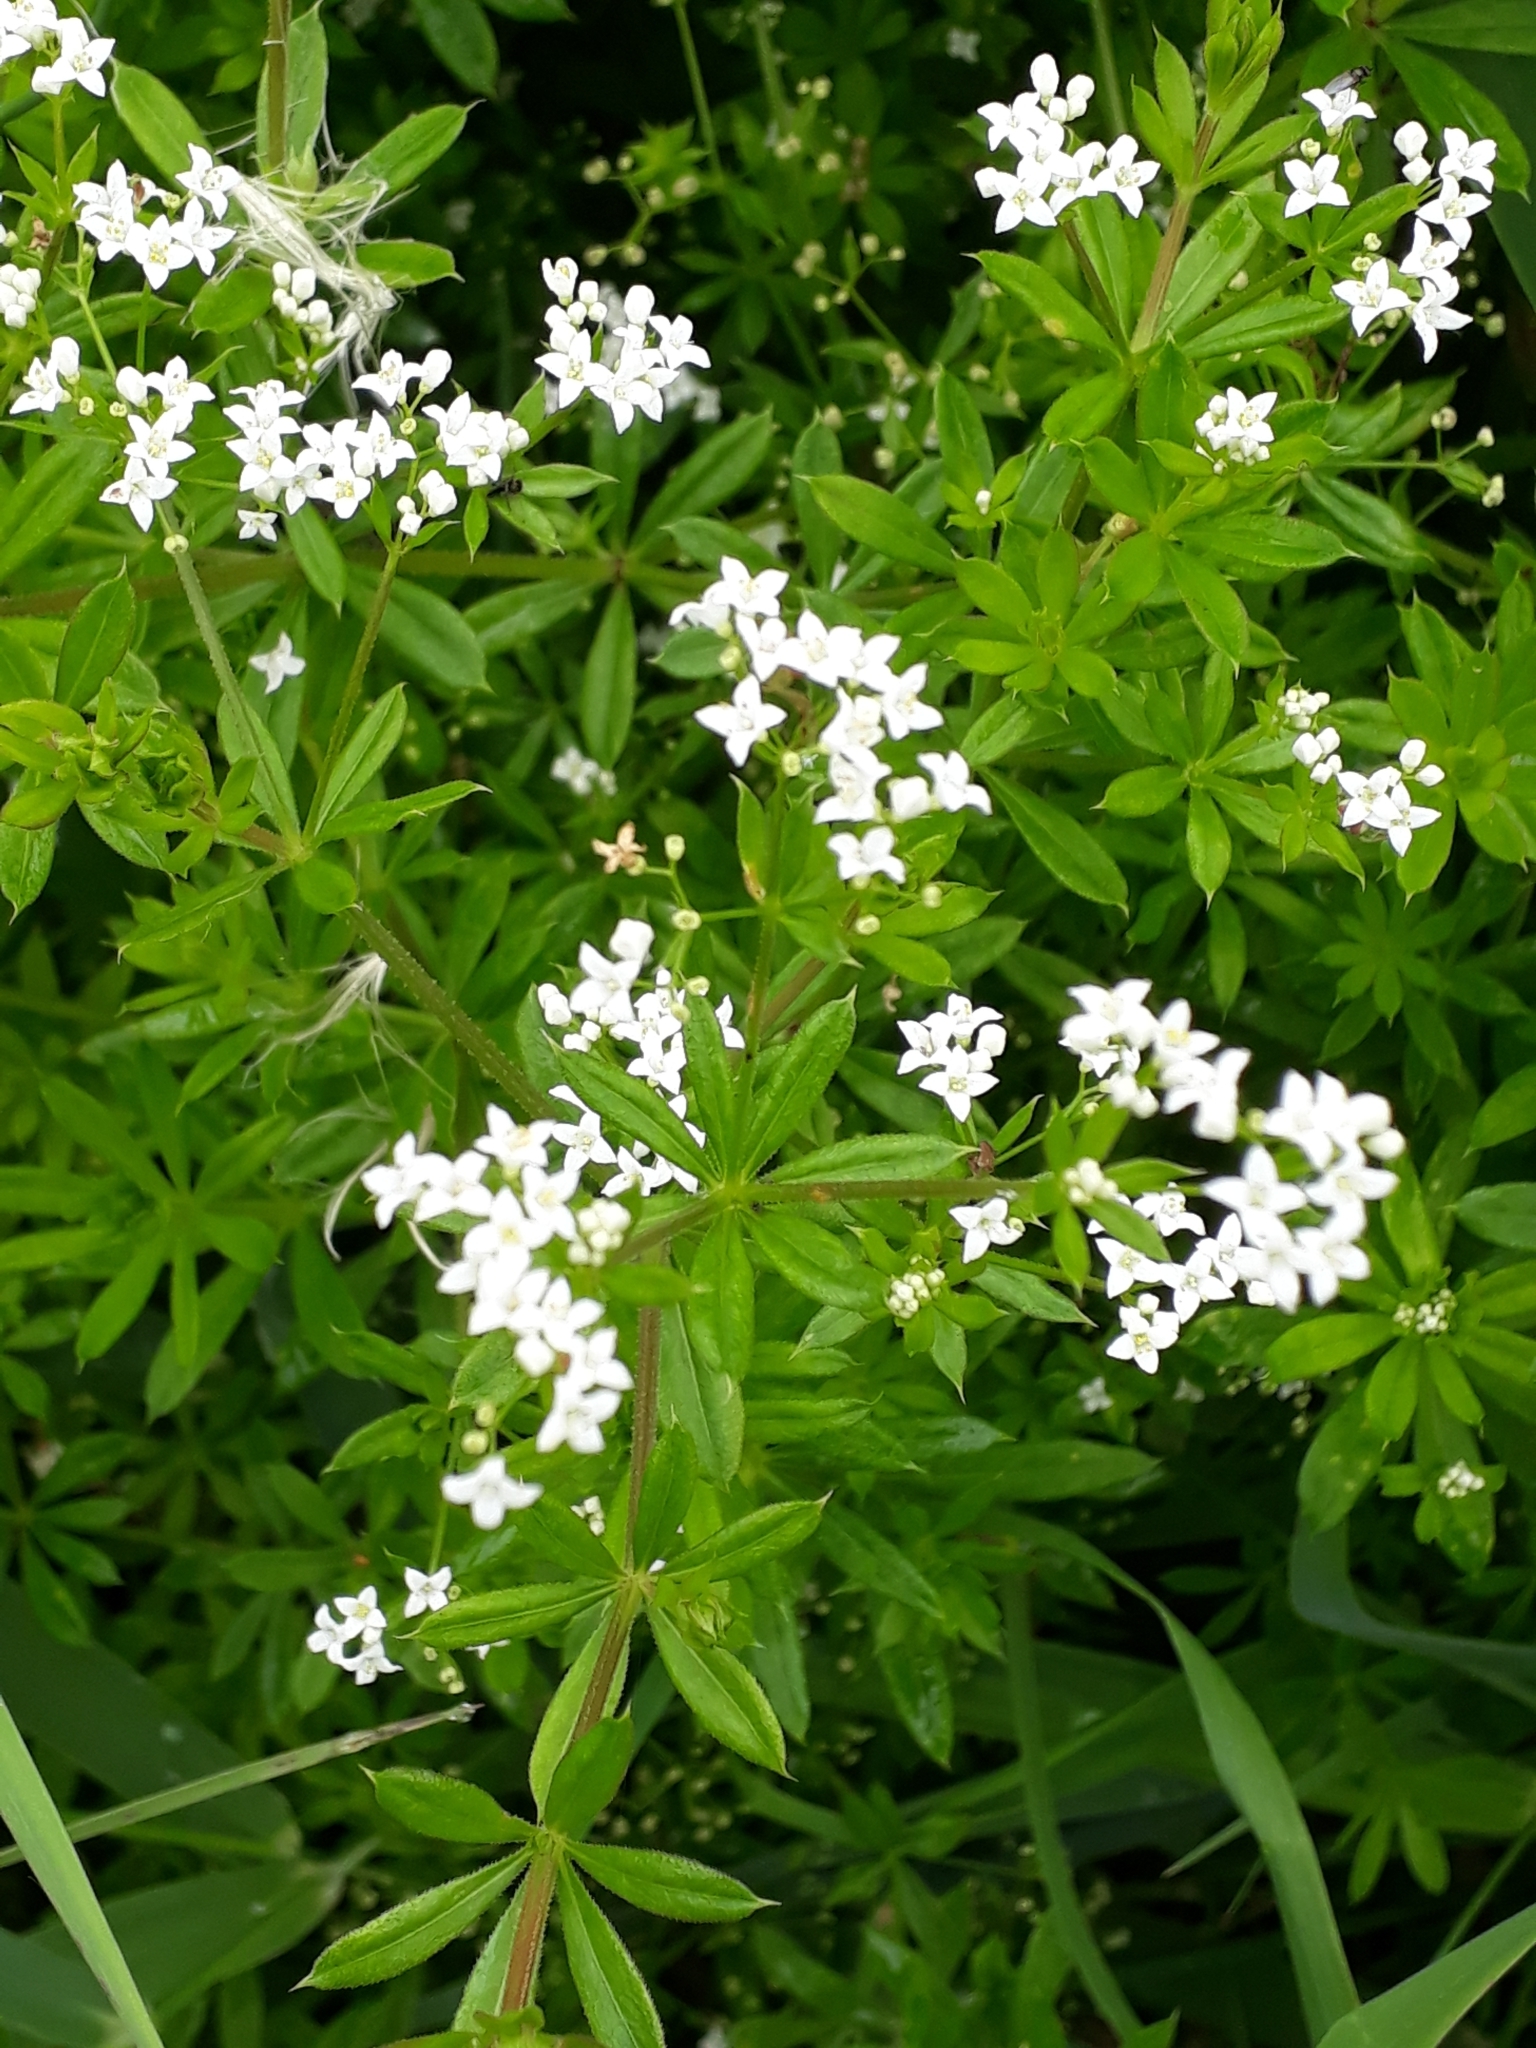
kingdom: Plantae
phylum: Tracheophyta
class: Magnoliopsida
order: Gentianales
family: Rubiaceae
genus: Galium
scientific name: Galium rivale
